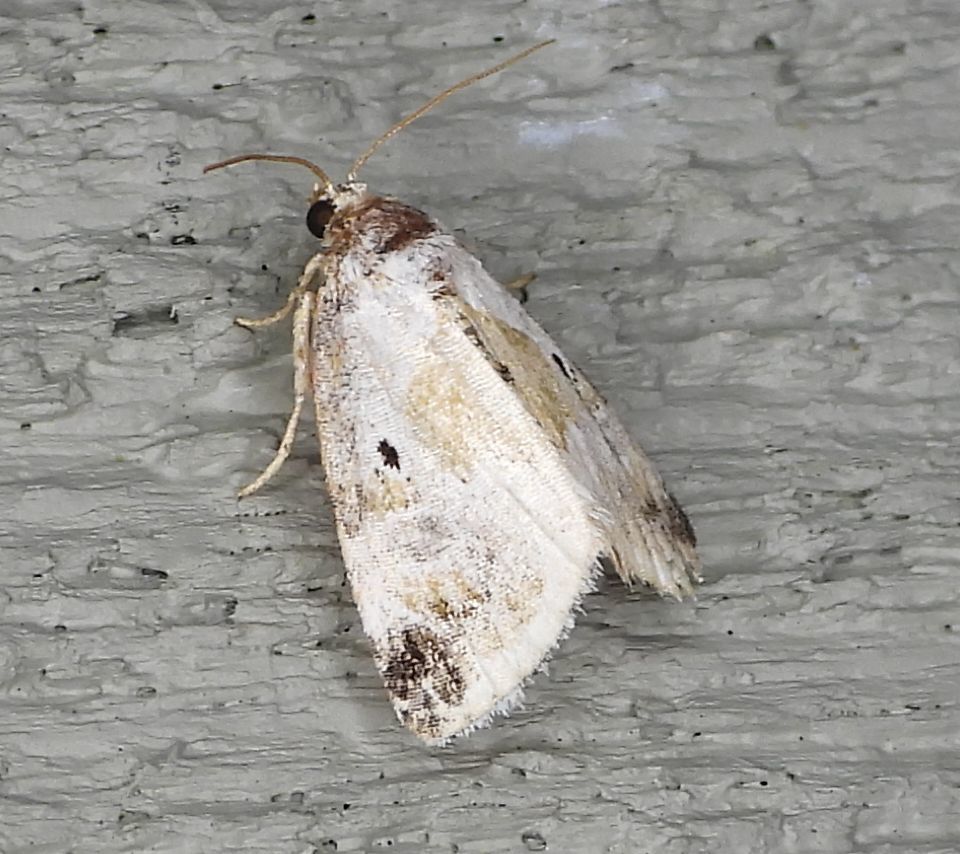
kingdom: Animalia
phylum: Arthropoda
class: Insecta
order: Lepidoptera
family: Noctuidae
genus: Maliattha
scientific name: Maliattha synochitis
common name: Black-dotted glyph
